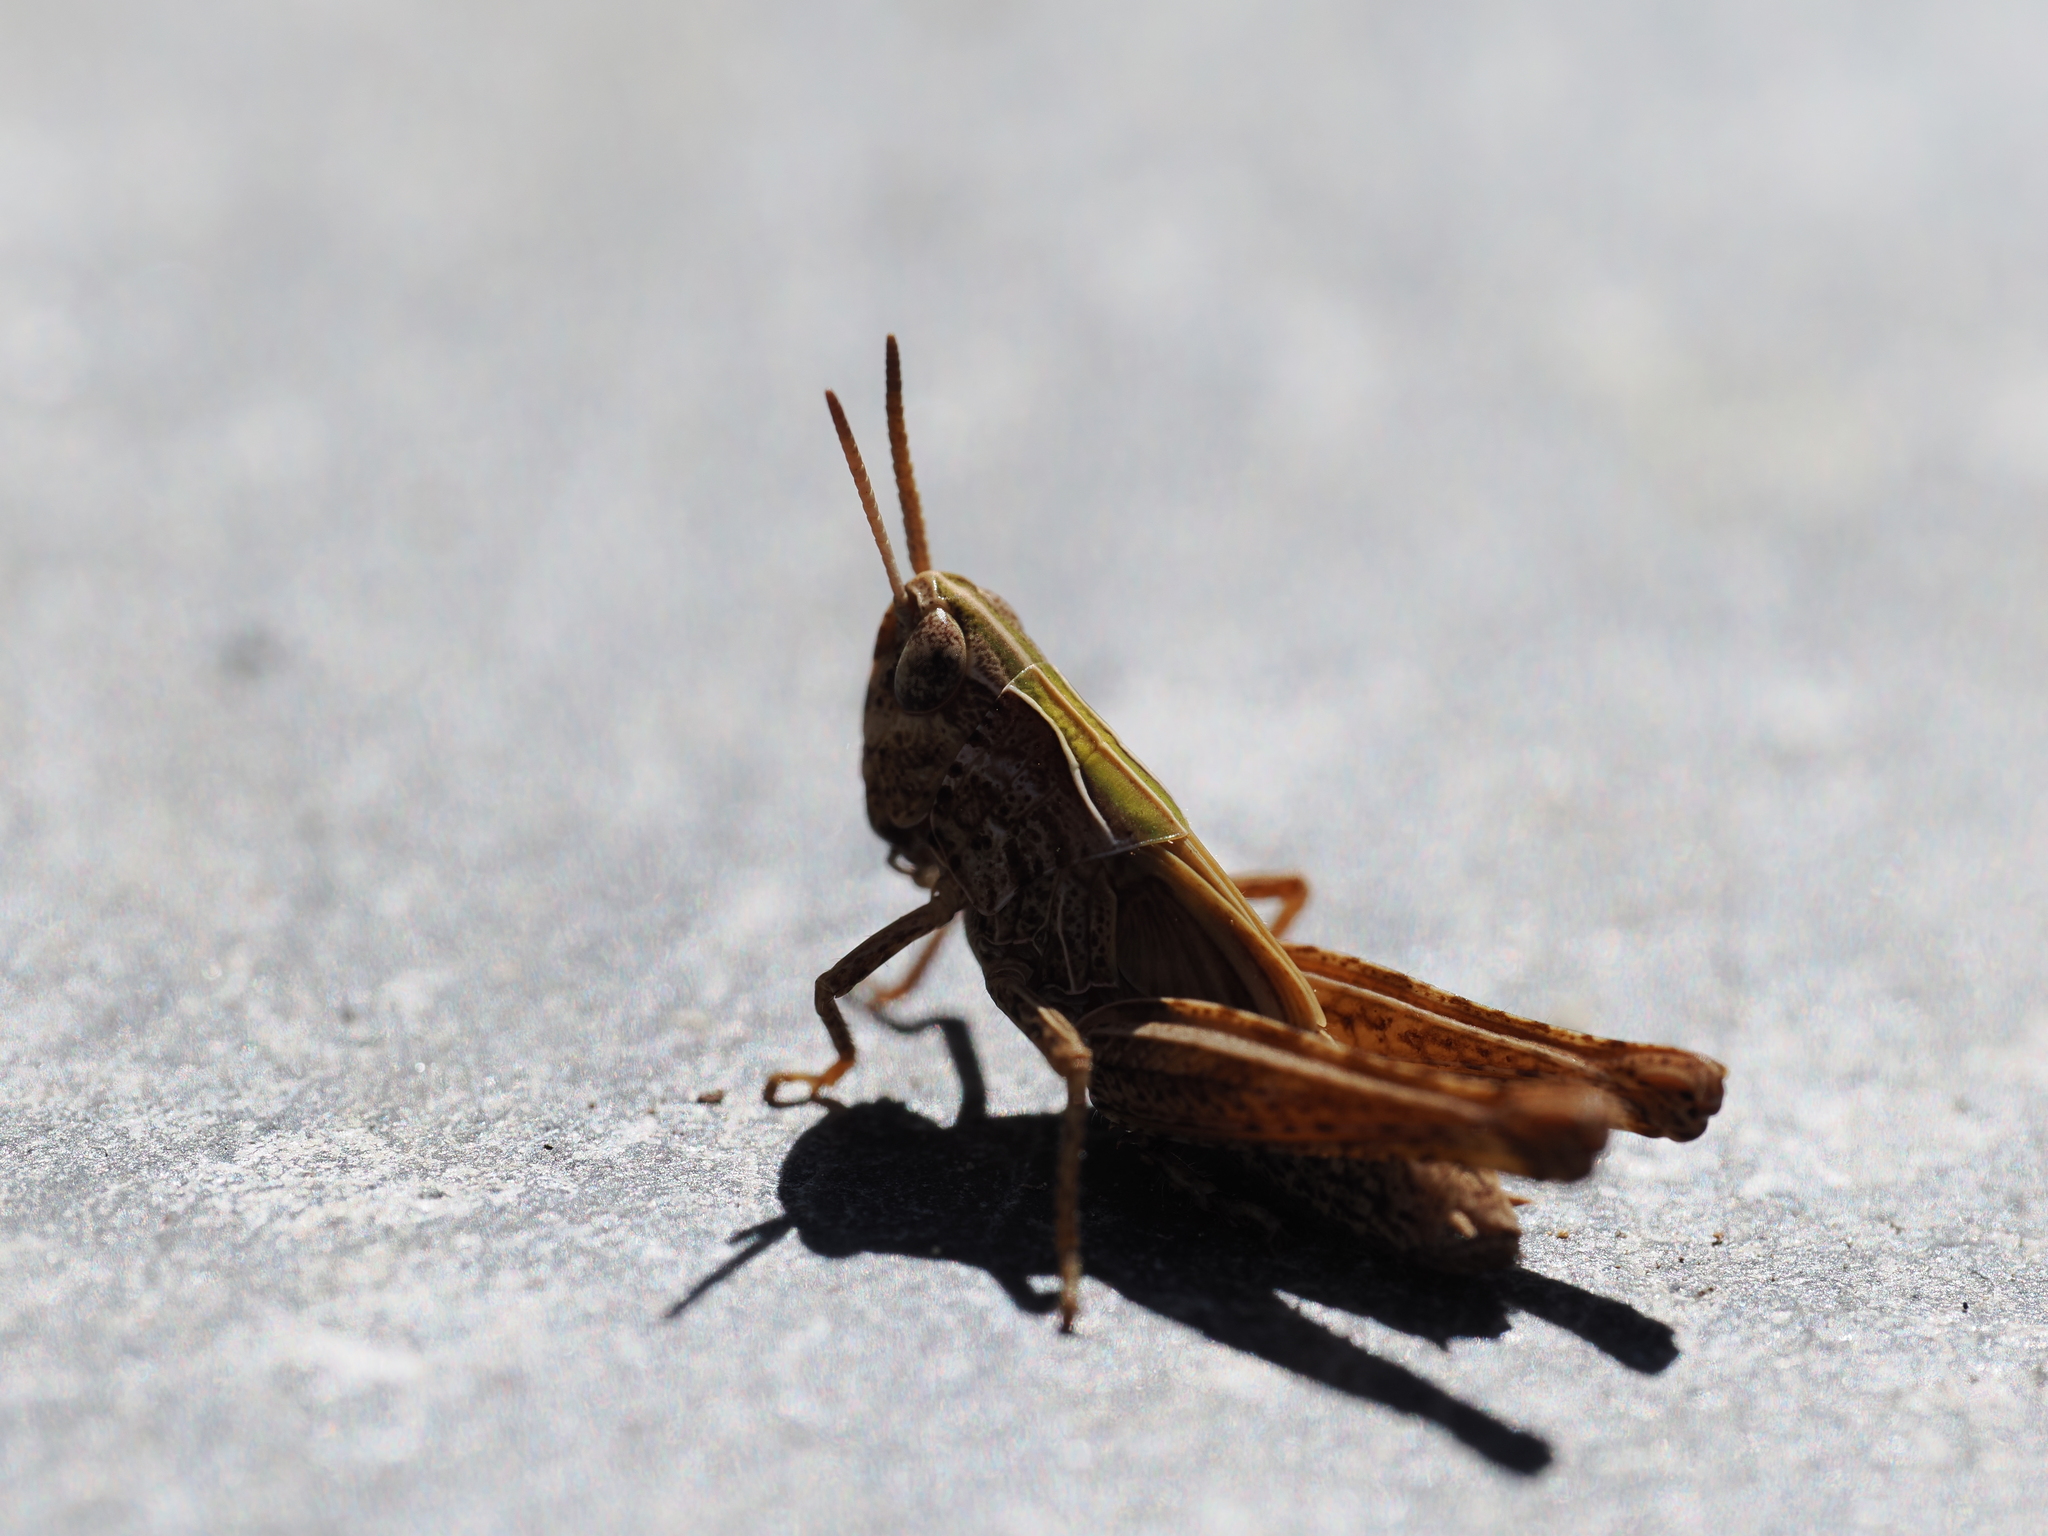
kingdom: Animalia
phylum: Arthropoda
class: Insecta
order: Orthoptera
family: Acrididae
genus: Omocestus
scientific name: Omocestus rufipes
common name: Woodland grasshopper
